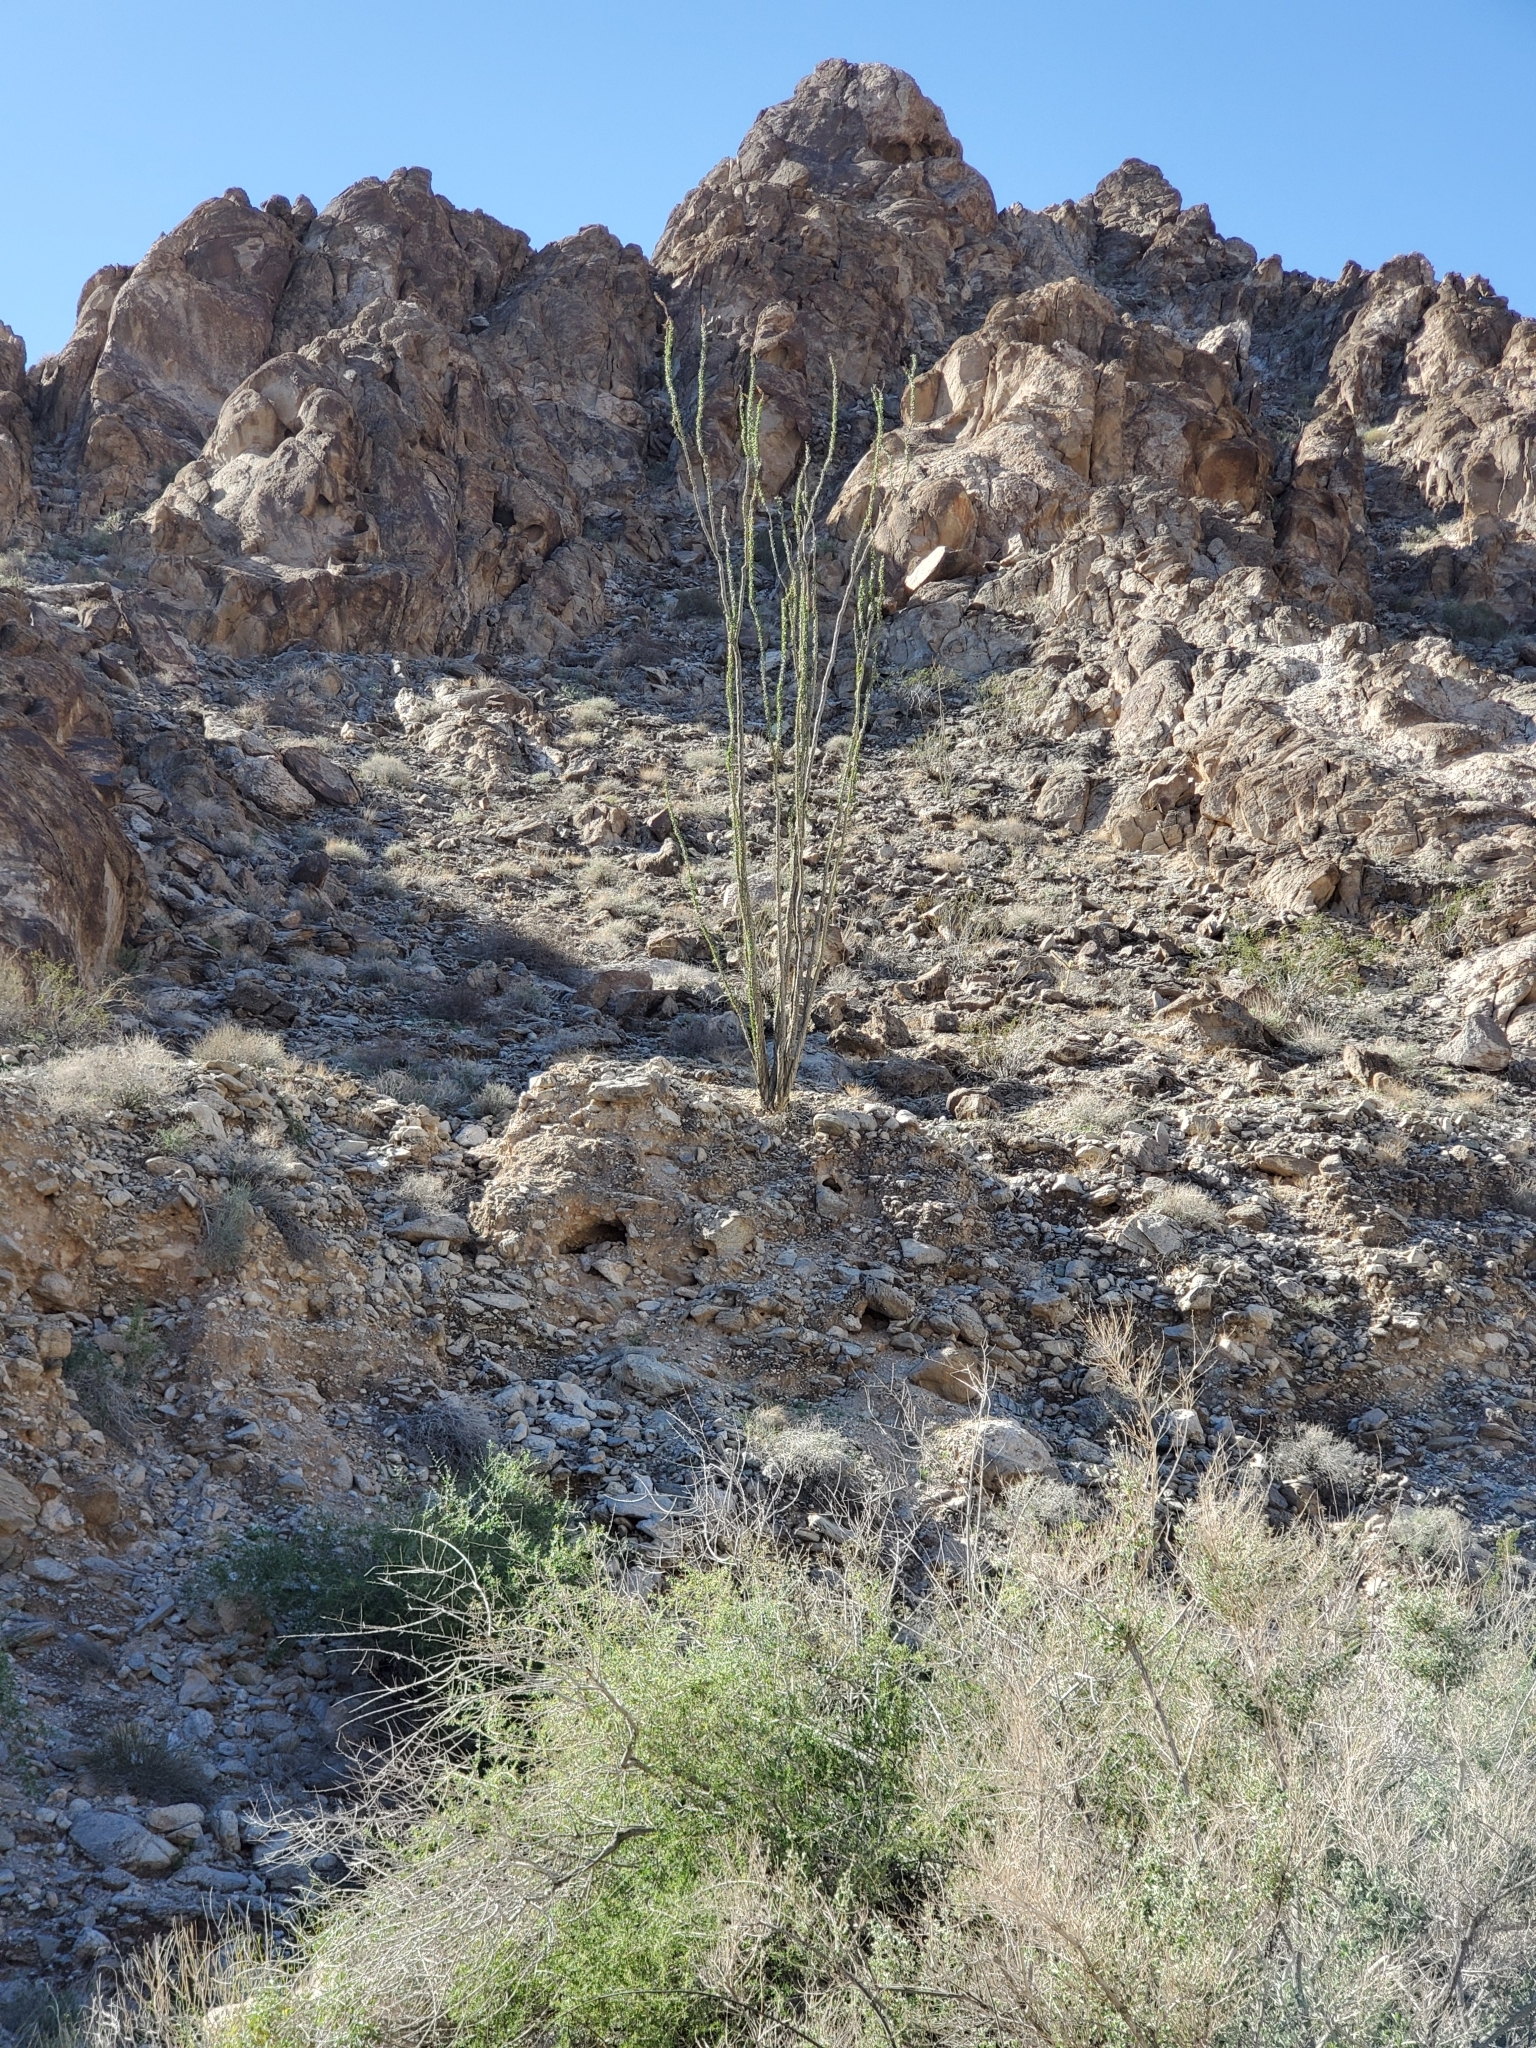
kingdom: Plantae
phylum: Tracheophyta
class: Magnoliopsida
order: Ericales
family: Fouquieriaceae
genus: Fouquieria
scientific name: Fouquieria splendens
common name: Vine-cactus
